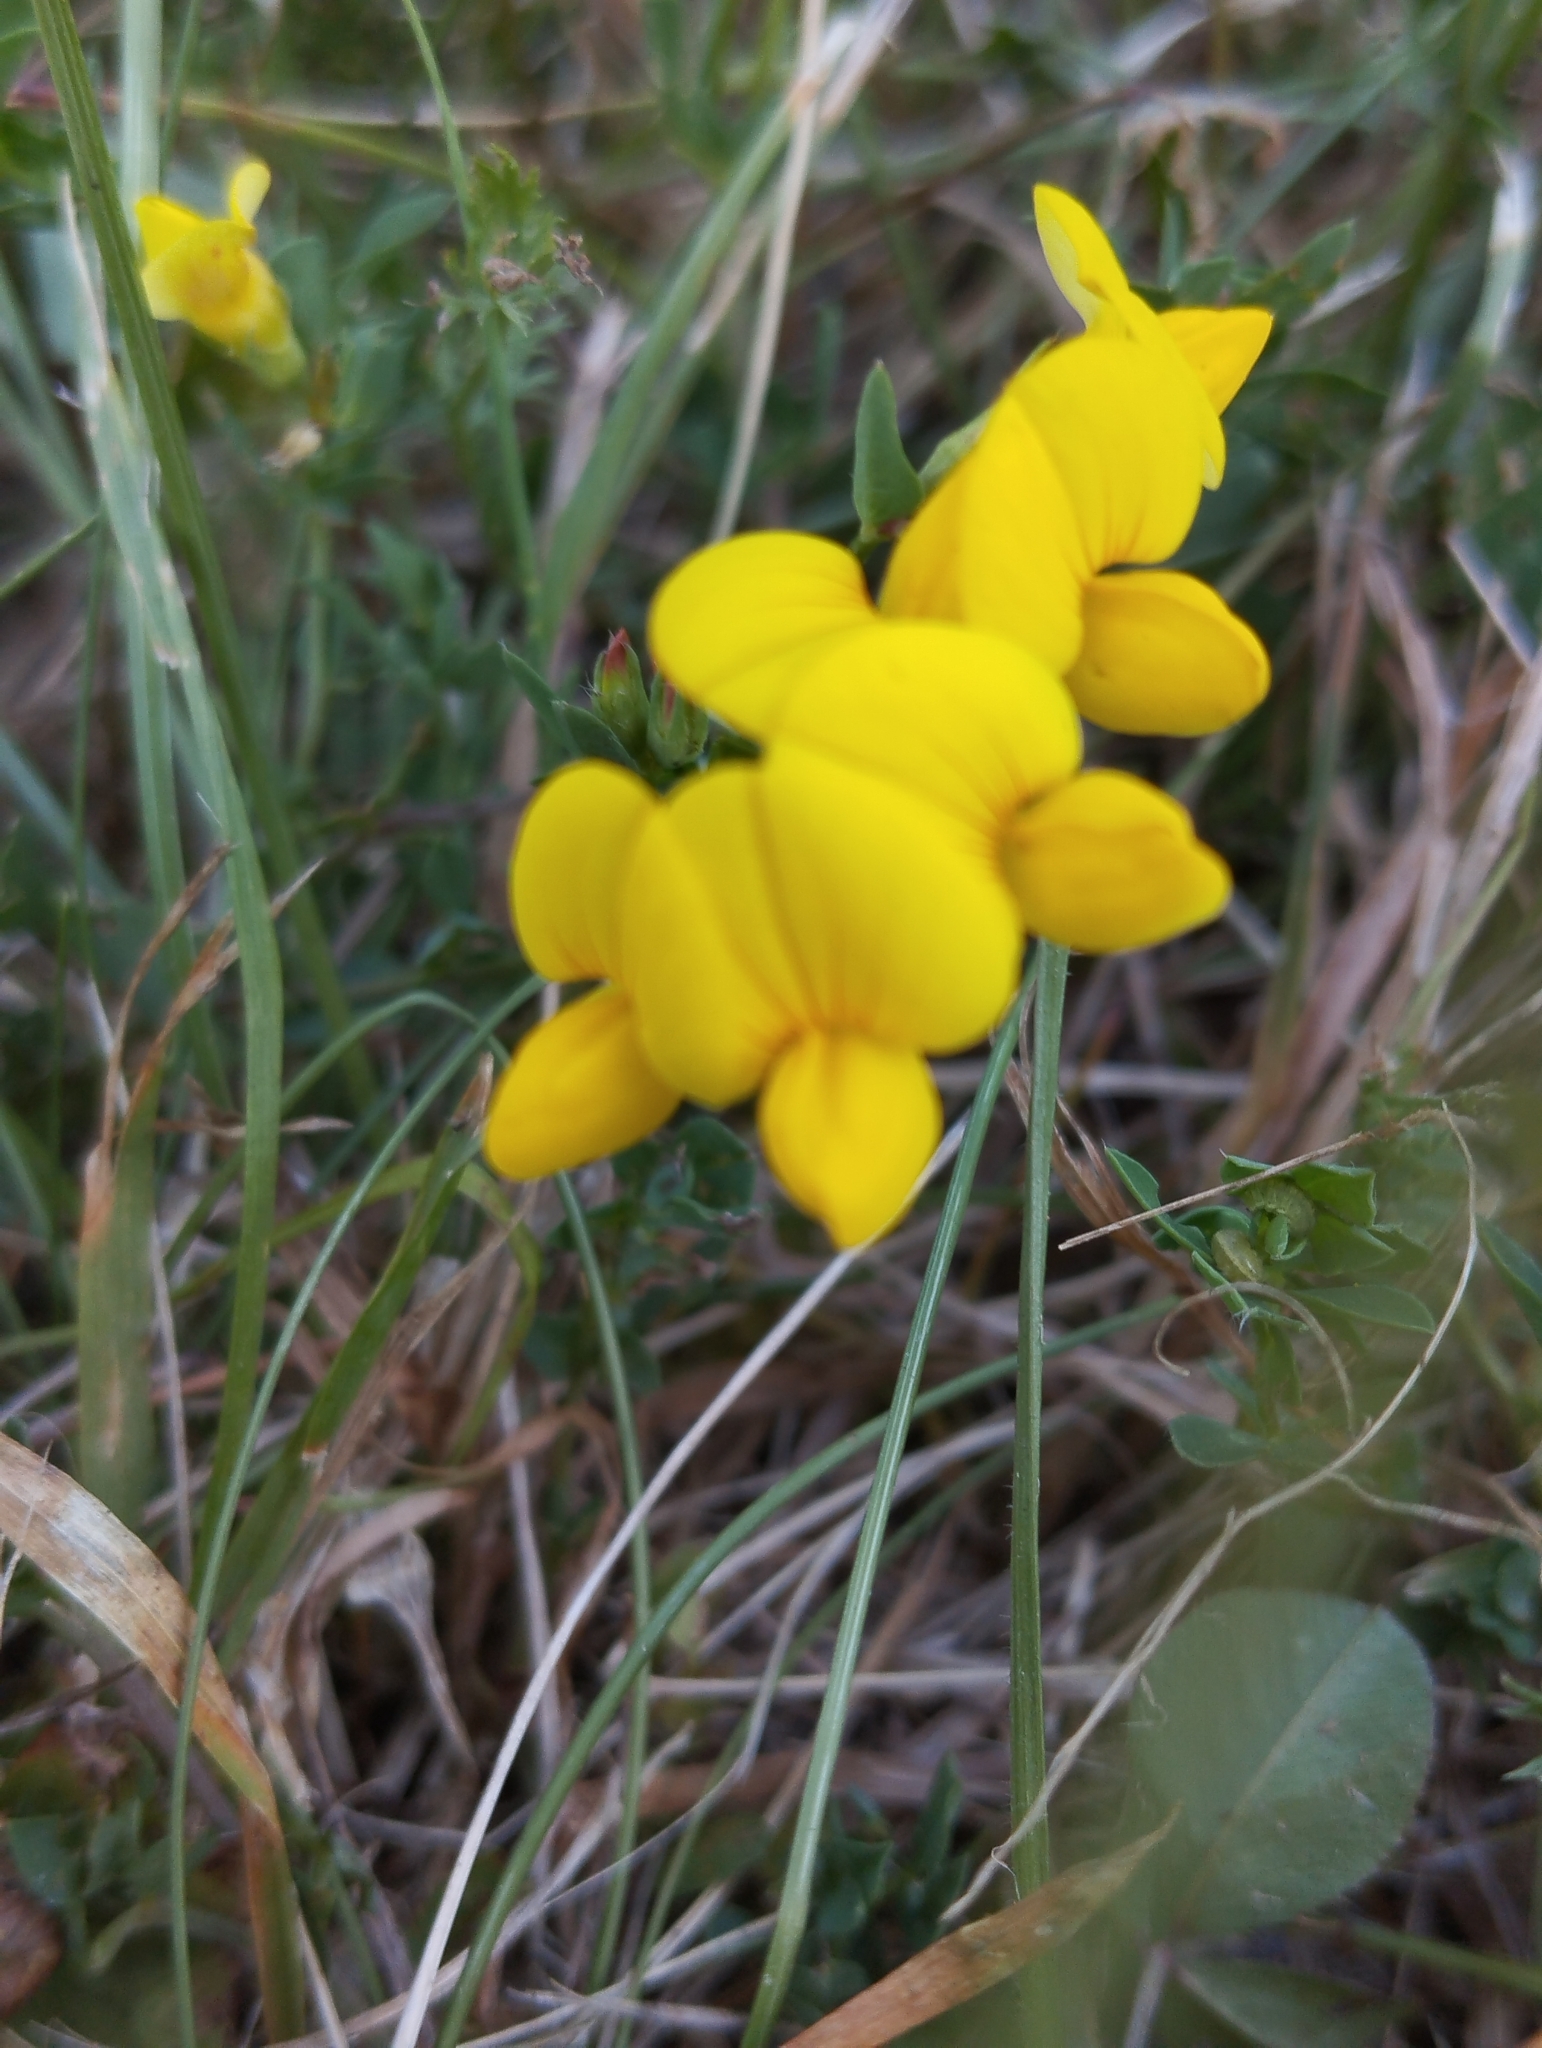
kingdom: Plantae
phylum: Tracheophyta
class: Magnoliopsida
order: Fabales
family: Fabaceae
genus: Lotus
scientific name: Lotus corniculatus
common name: Common bird's-foot-trefoil
